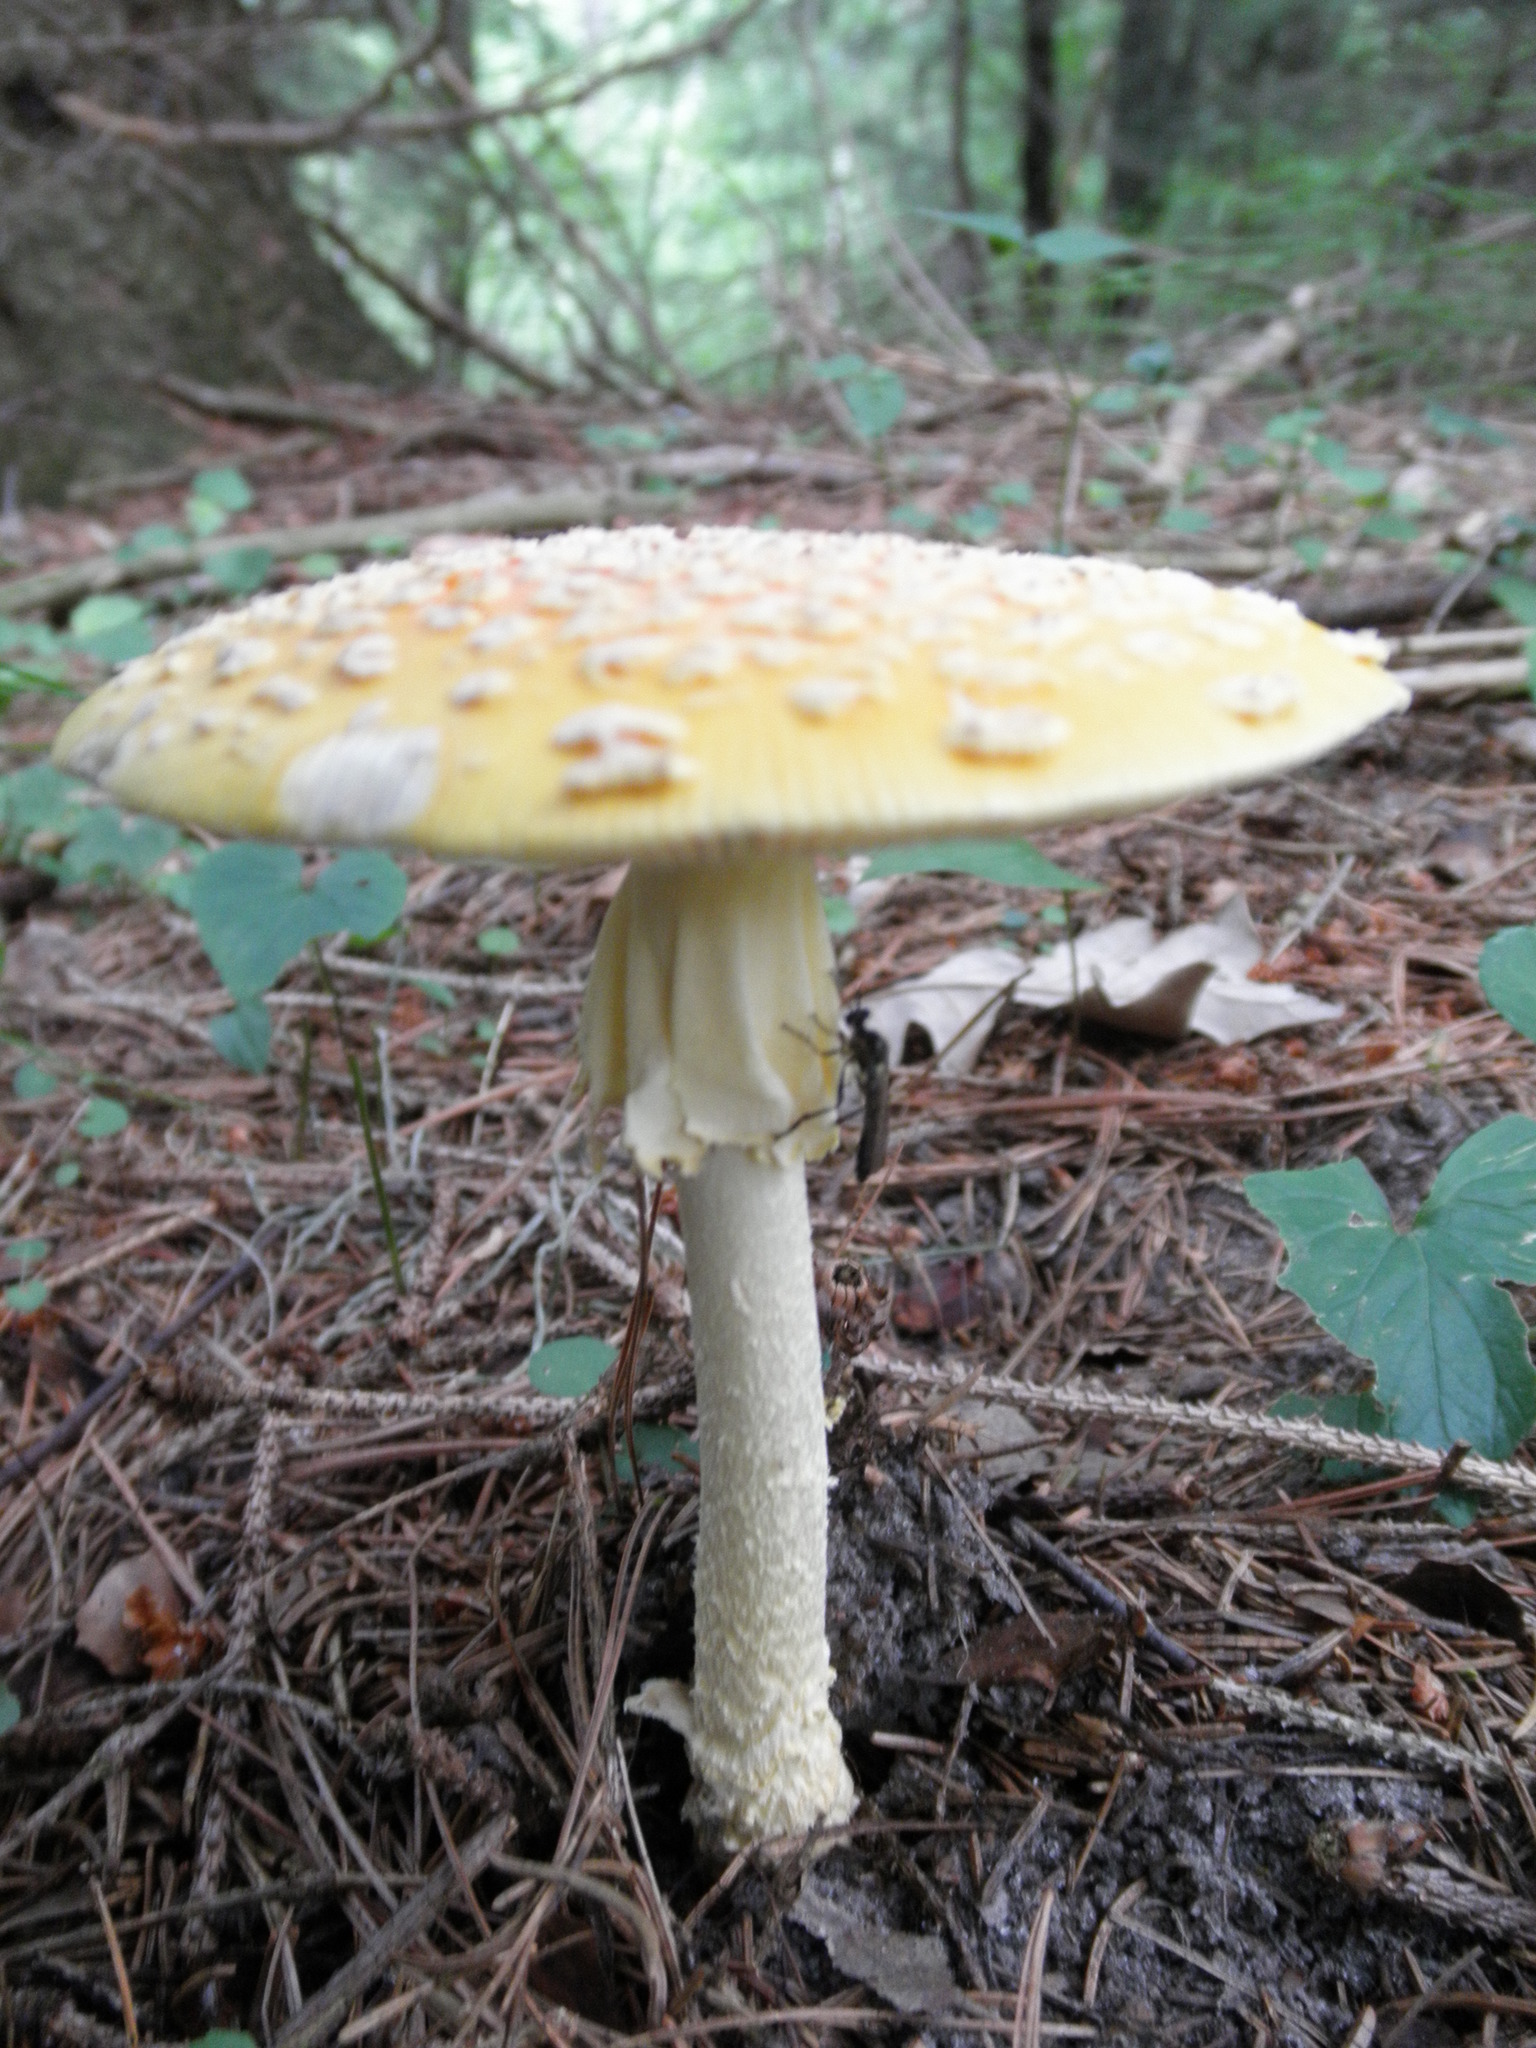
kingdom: Fungi
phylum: Basidiomycota
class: Agaricomycetes
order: Agaricales
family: Amanitaceae
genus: Amanita
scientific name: Amanita muscaria
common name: Fly agaric
